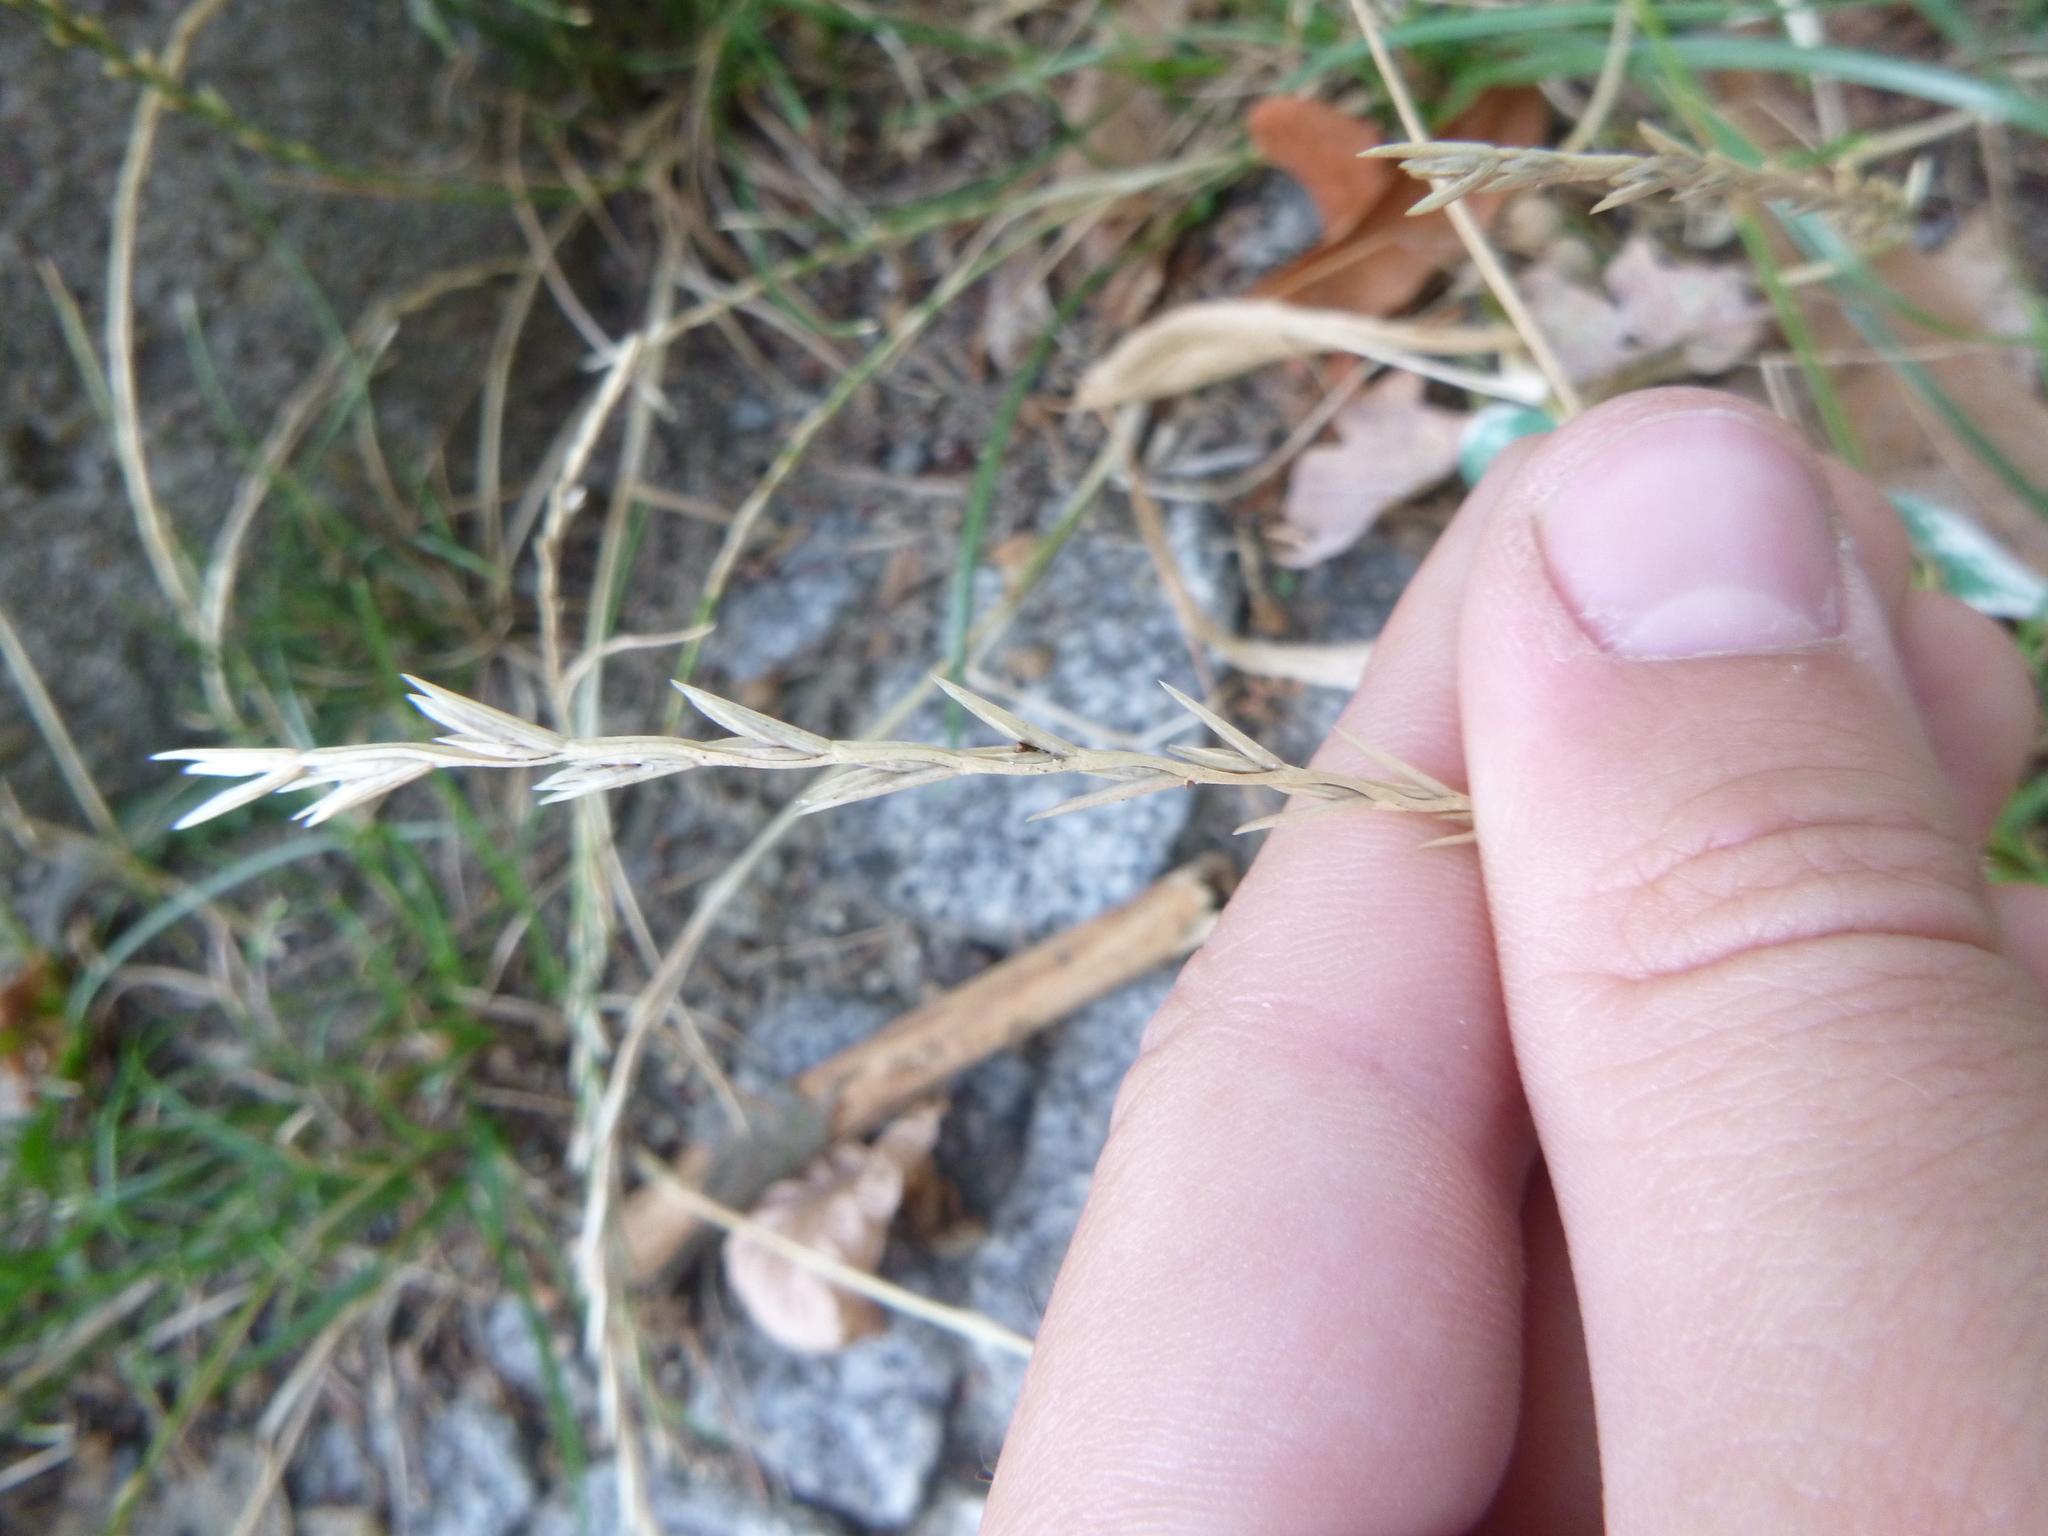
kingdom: Plantae
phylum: Tracheophyta
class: Liliopsida
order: Poales
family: Poaceae
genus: Lolium
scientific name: Lolium perenne
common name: Perennial ryegrass
